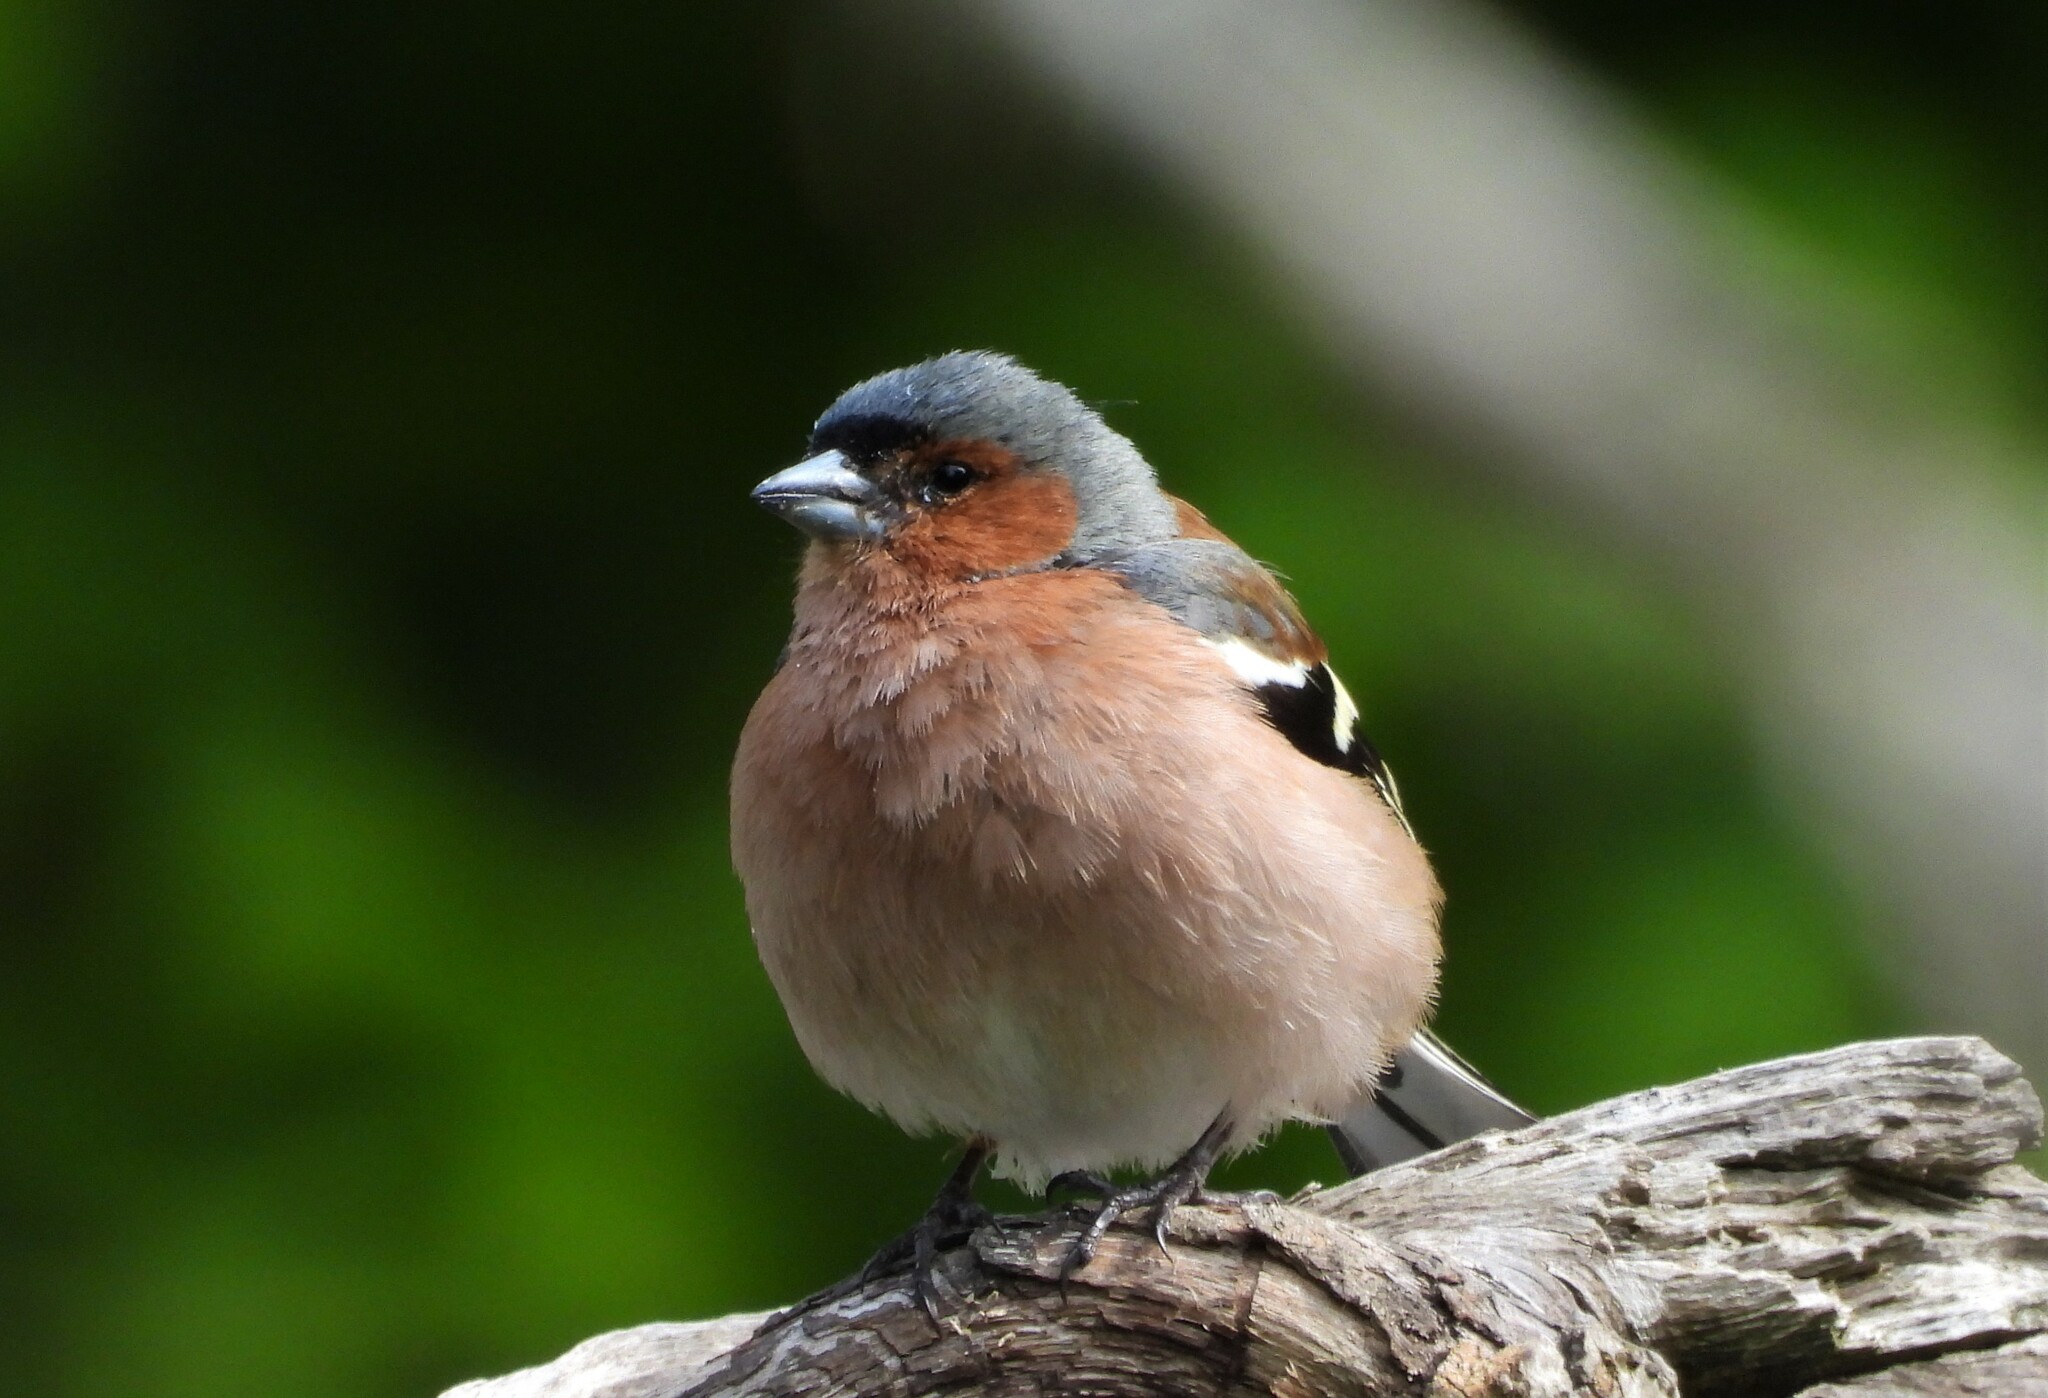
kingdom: Animalia
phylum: Chordata
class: Aves
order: Passeriformes
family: Fringillidae
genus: Fringilla
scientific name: Fringilla coelebs
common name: Common chaffinch
